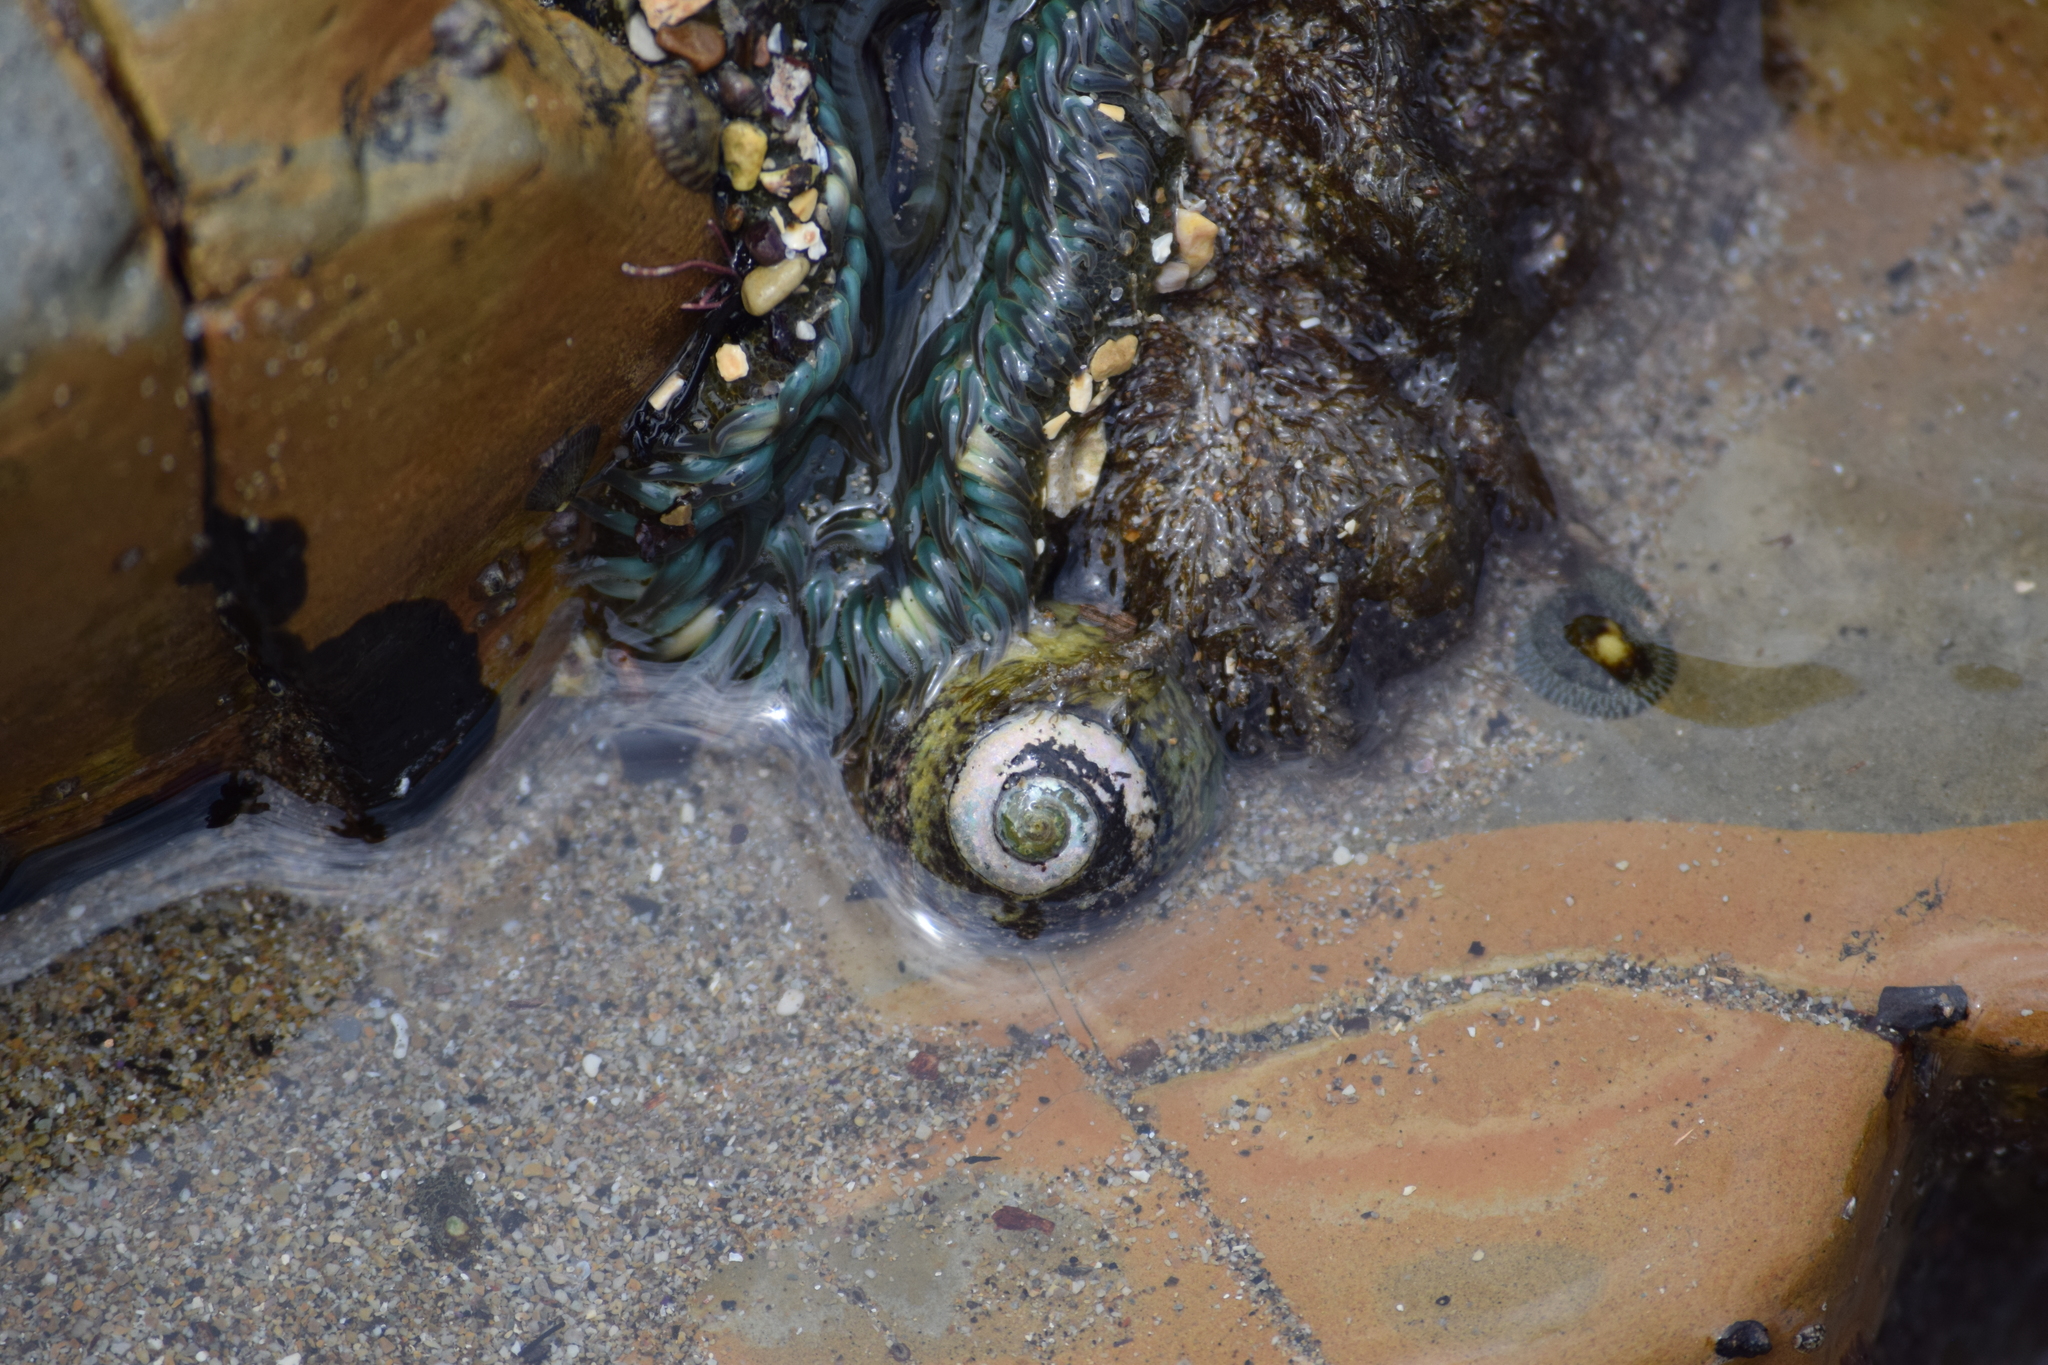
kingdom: Animalia
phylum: Mollusca
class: Gastropoda
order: Trochida
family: Tegulidae
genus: Tegula
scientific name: Tegula gallina
